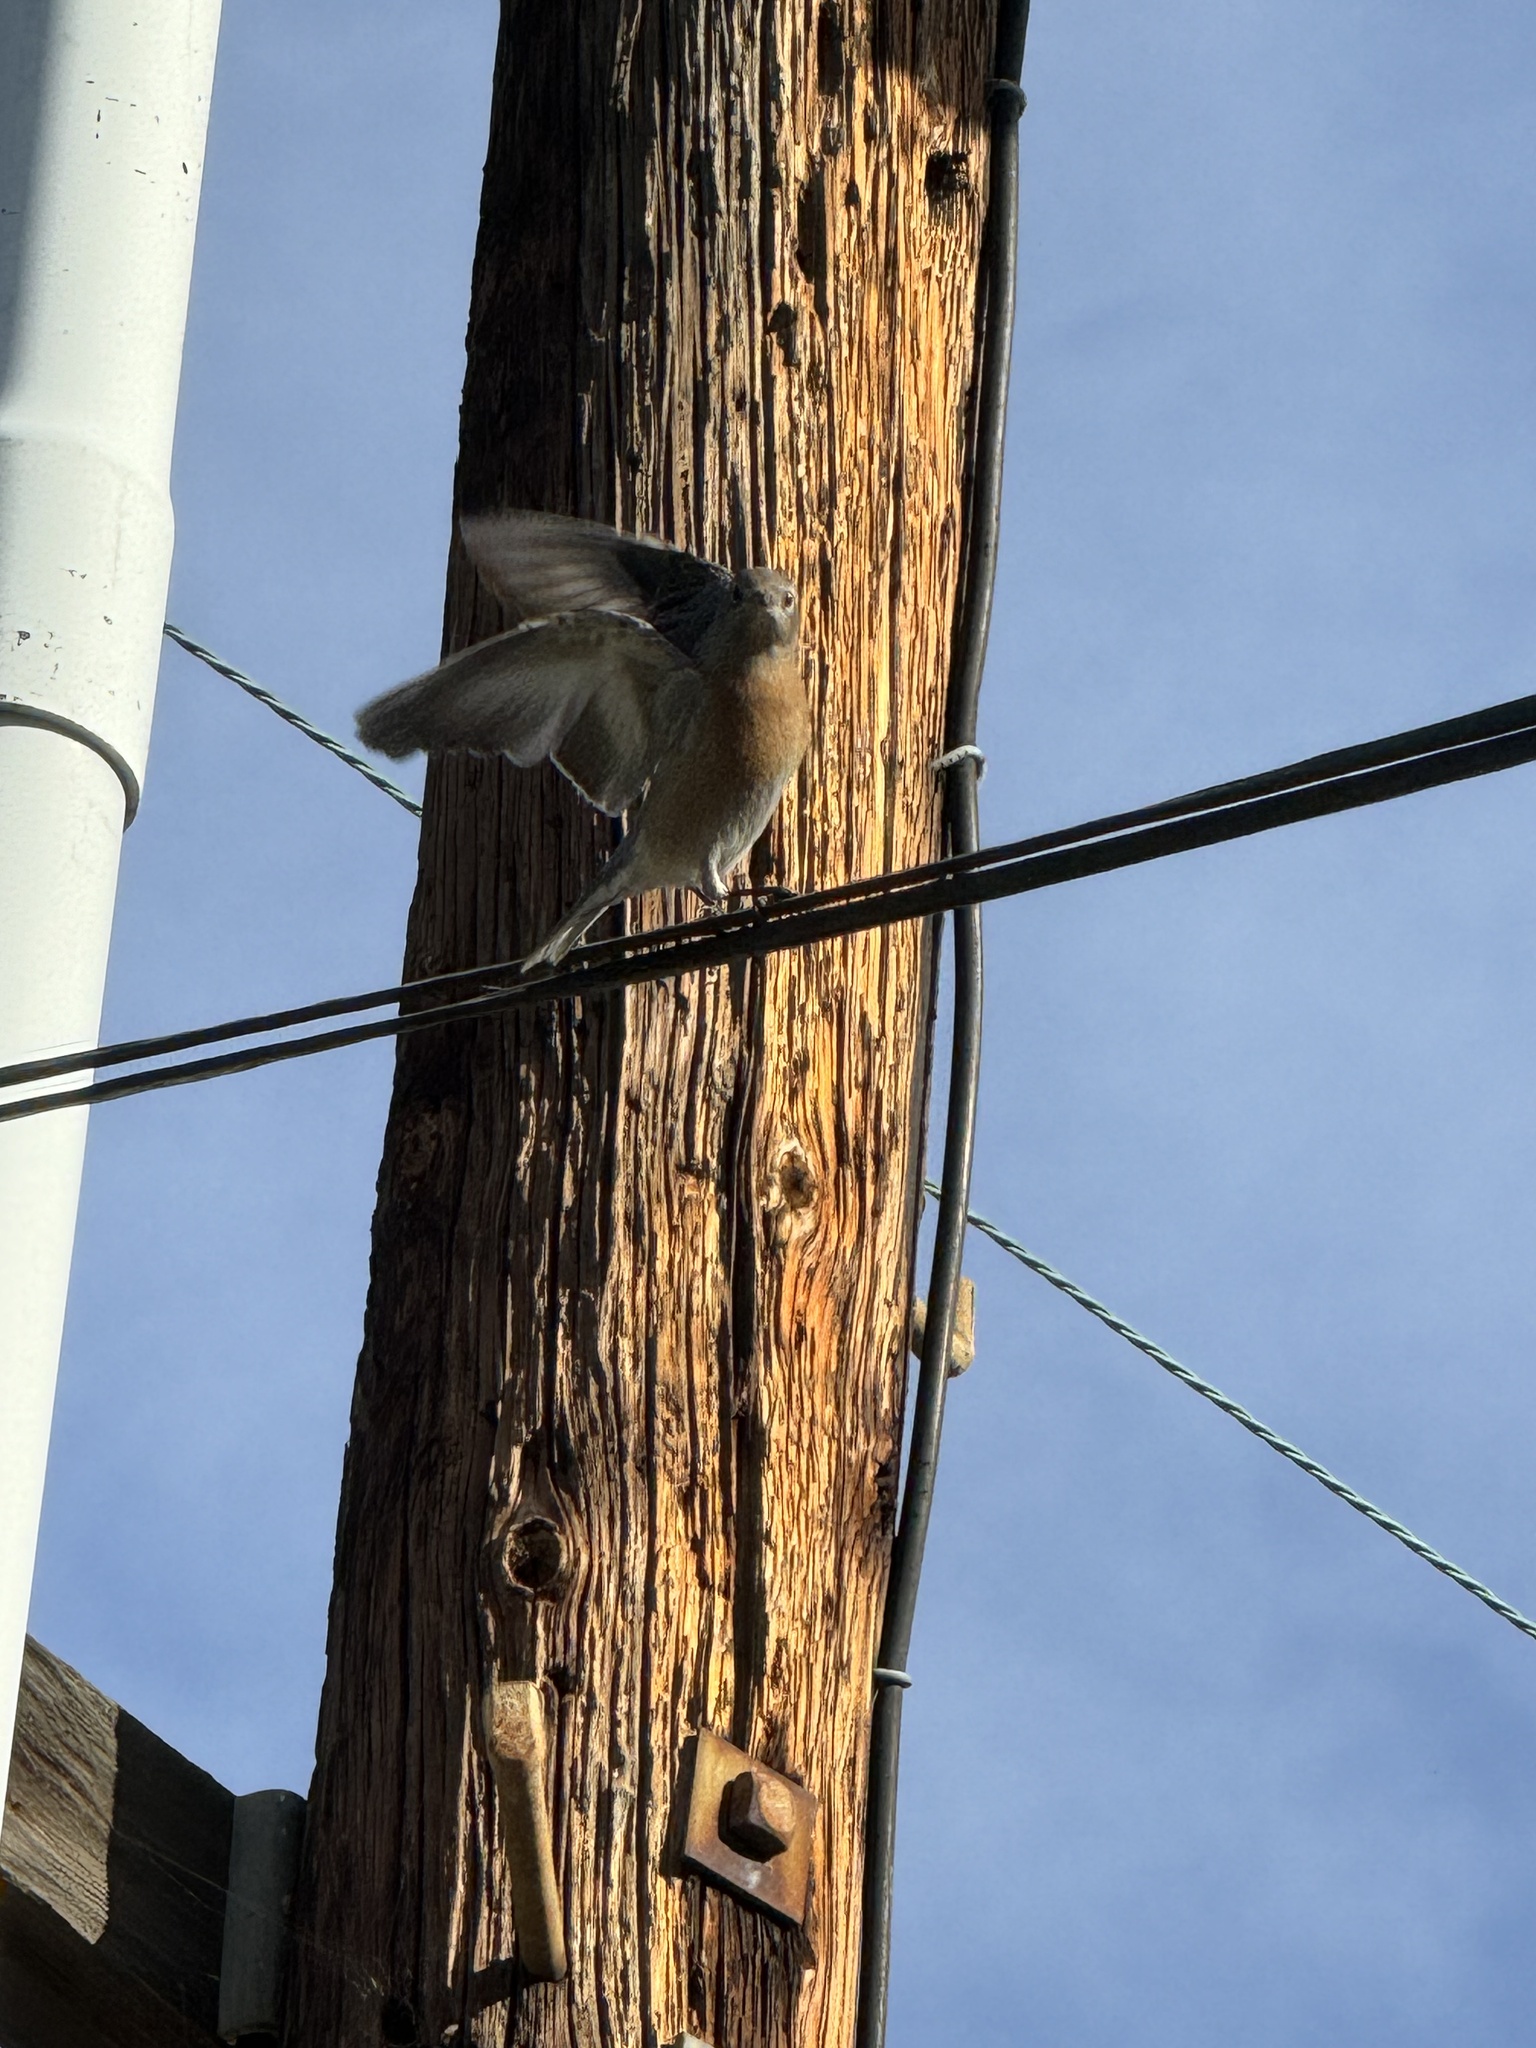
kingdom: Animalia
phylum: Chordata
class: Aves
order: Passeriformes
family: Turdidae
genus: Sialia
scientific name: Sialia mexicana
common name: Western bluebird
